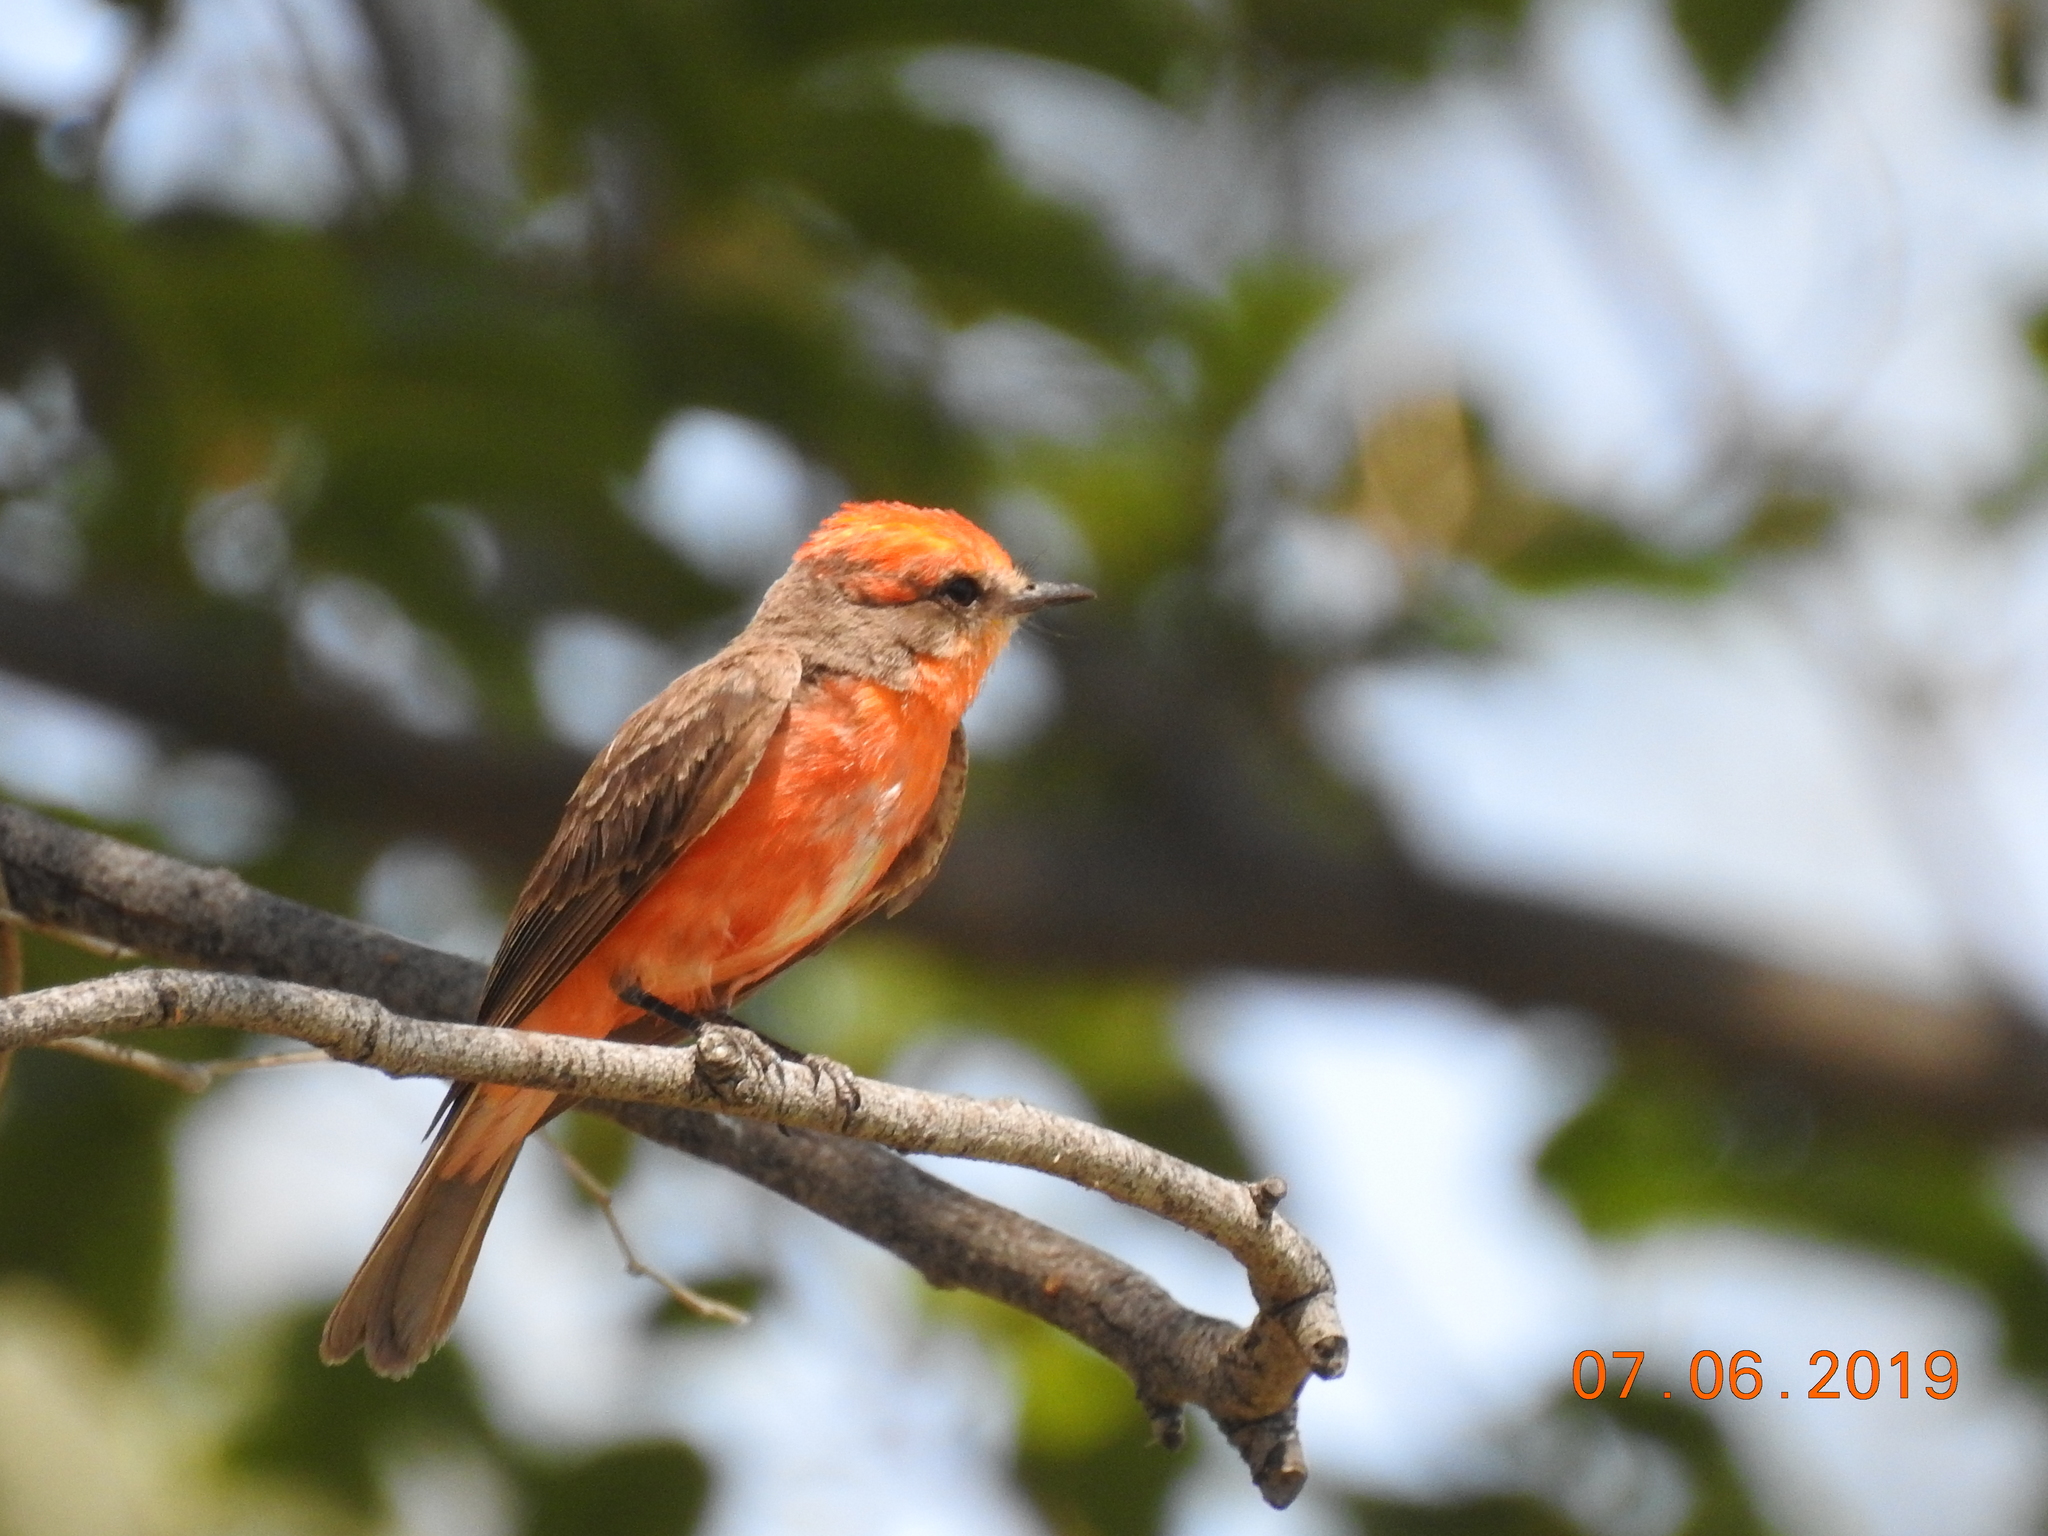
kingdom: Animalia
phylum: Chordata
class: Aves
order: Passeriformes
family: Tyrannidae
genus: Pyrocephalus
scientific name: Pyrocephalus rubinus
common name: Vermilion flycatcher
